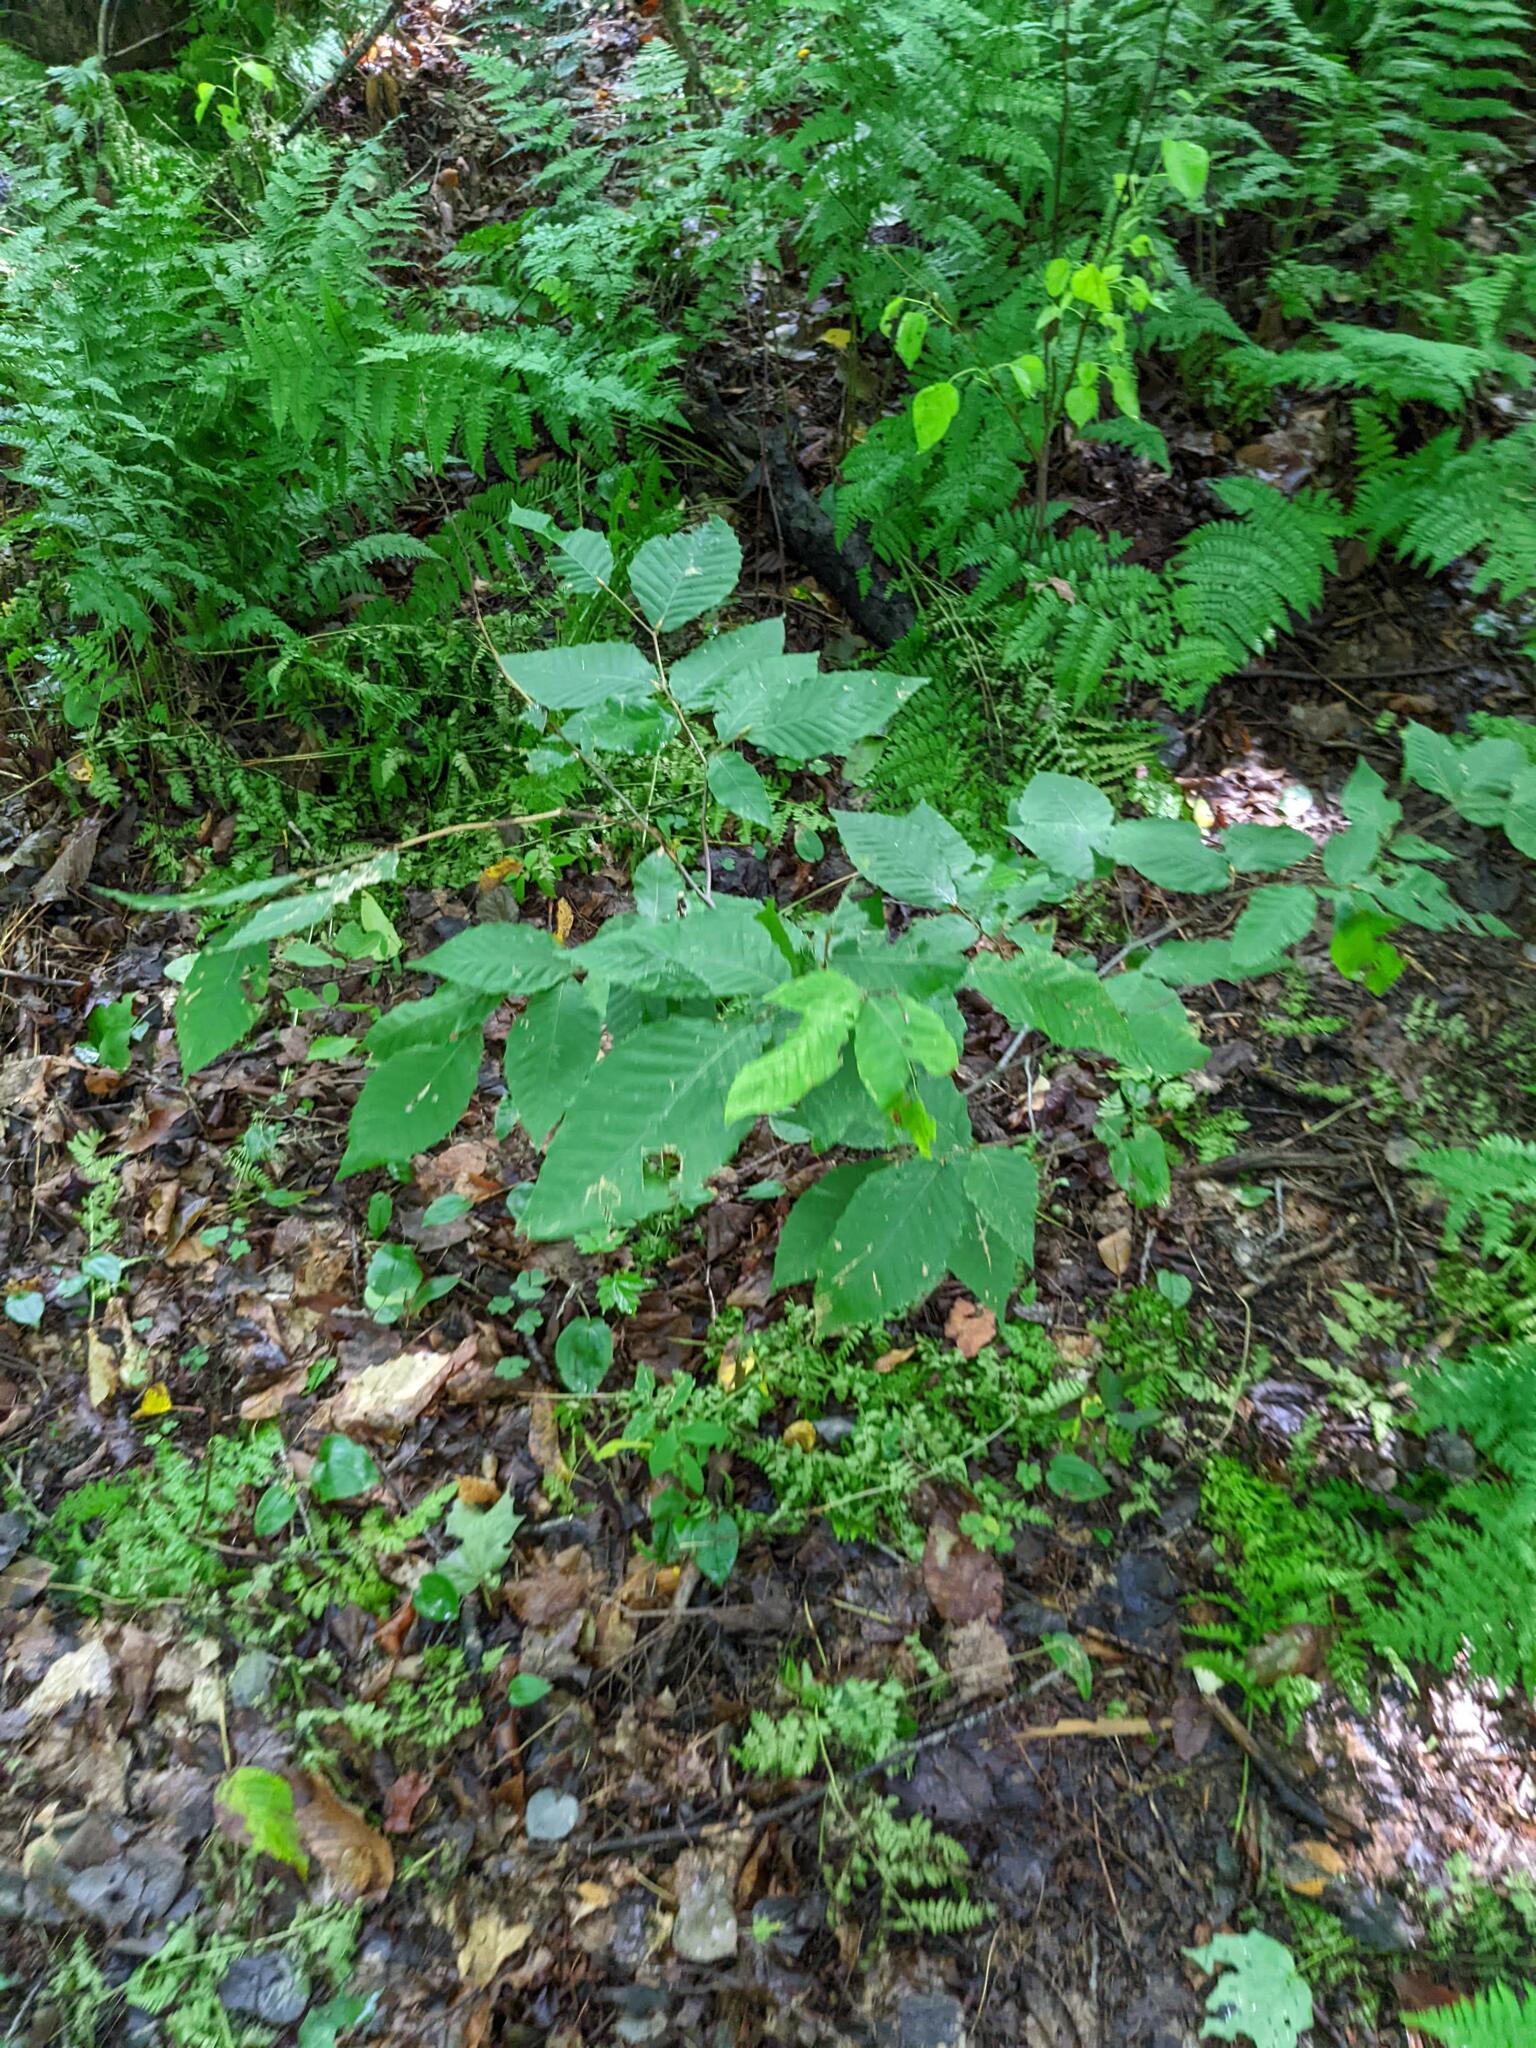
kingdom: Plantae
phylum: Tracheophyta
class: Magnoliopsida
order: Fagales
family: Fagaceae
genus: Fagus
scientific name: Fagus grandifolia
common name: American beech
